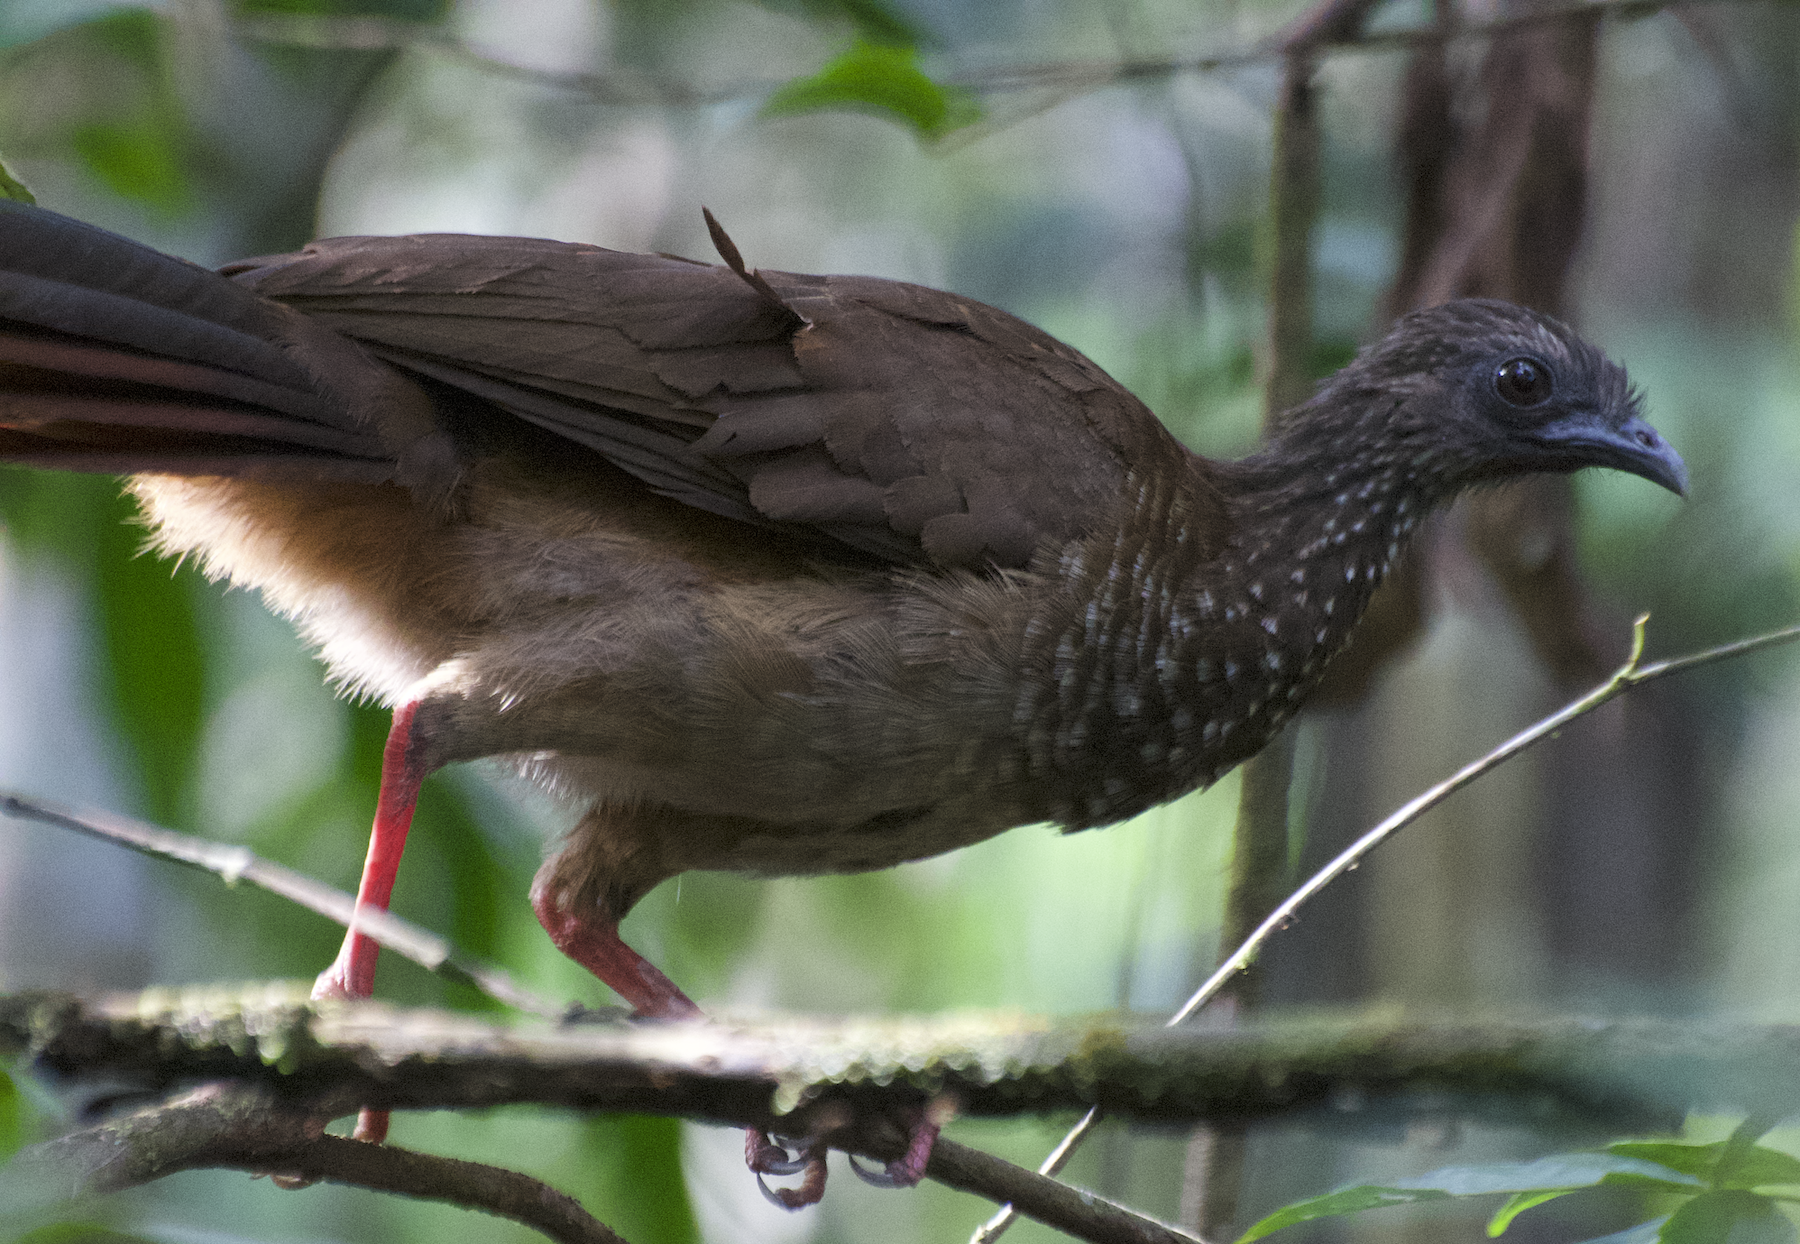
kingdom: Animalia
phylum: Chordata
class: Aves
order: Galliformes
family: Cracidae
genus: Ortalis
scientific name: Ortalis guttata
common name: Speckled chachalaca
